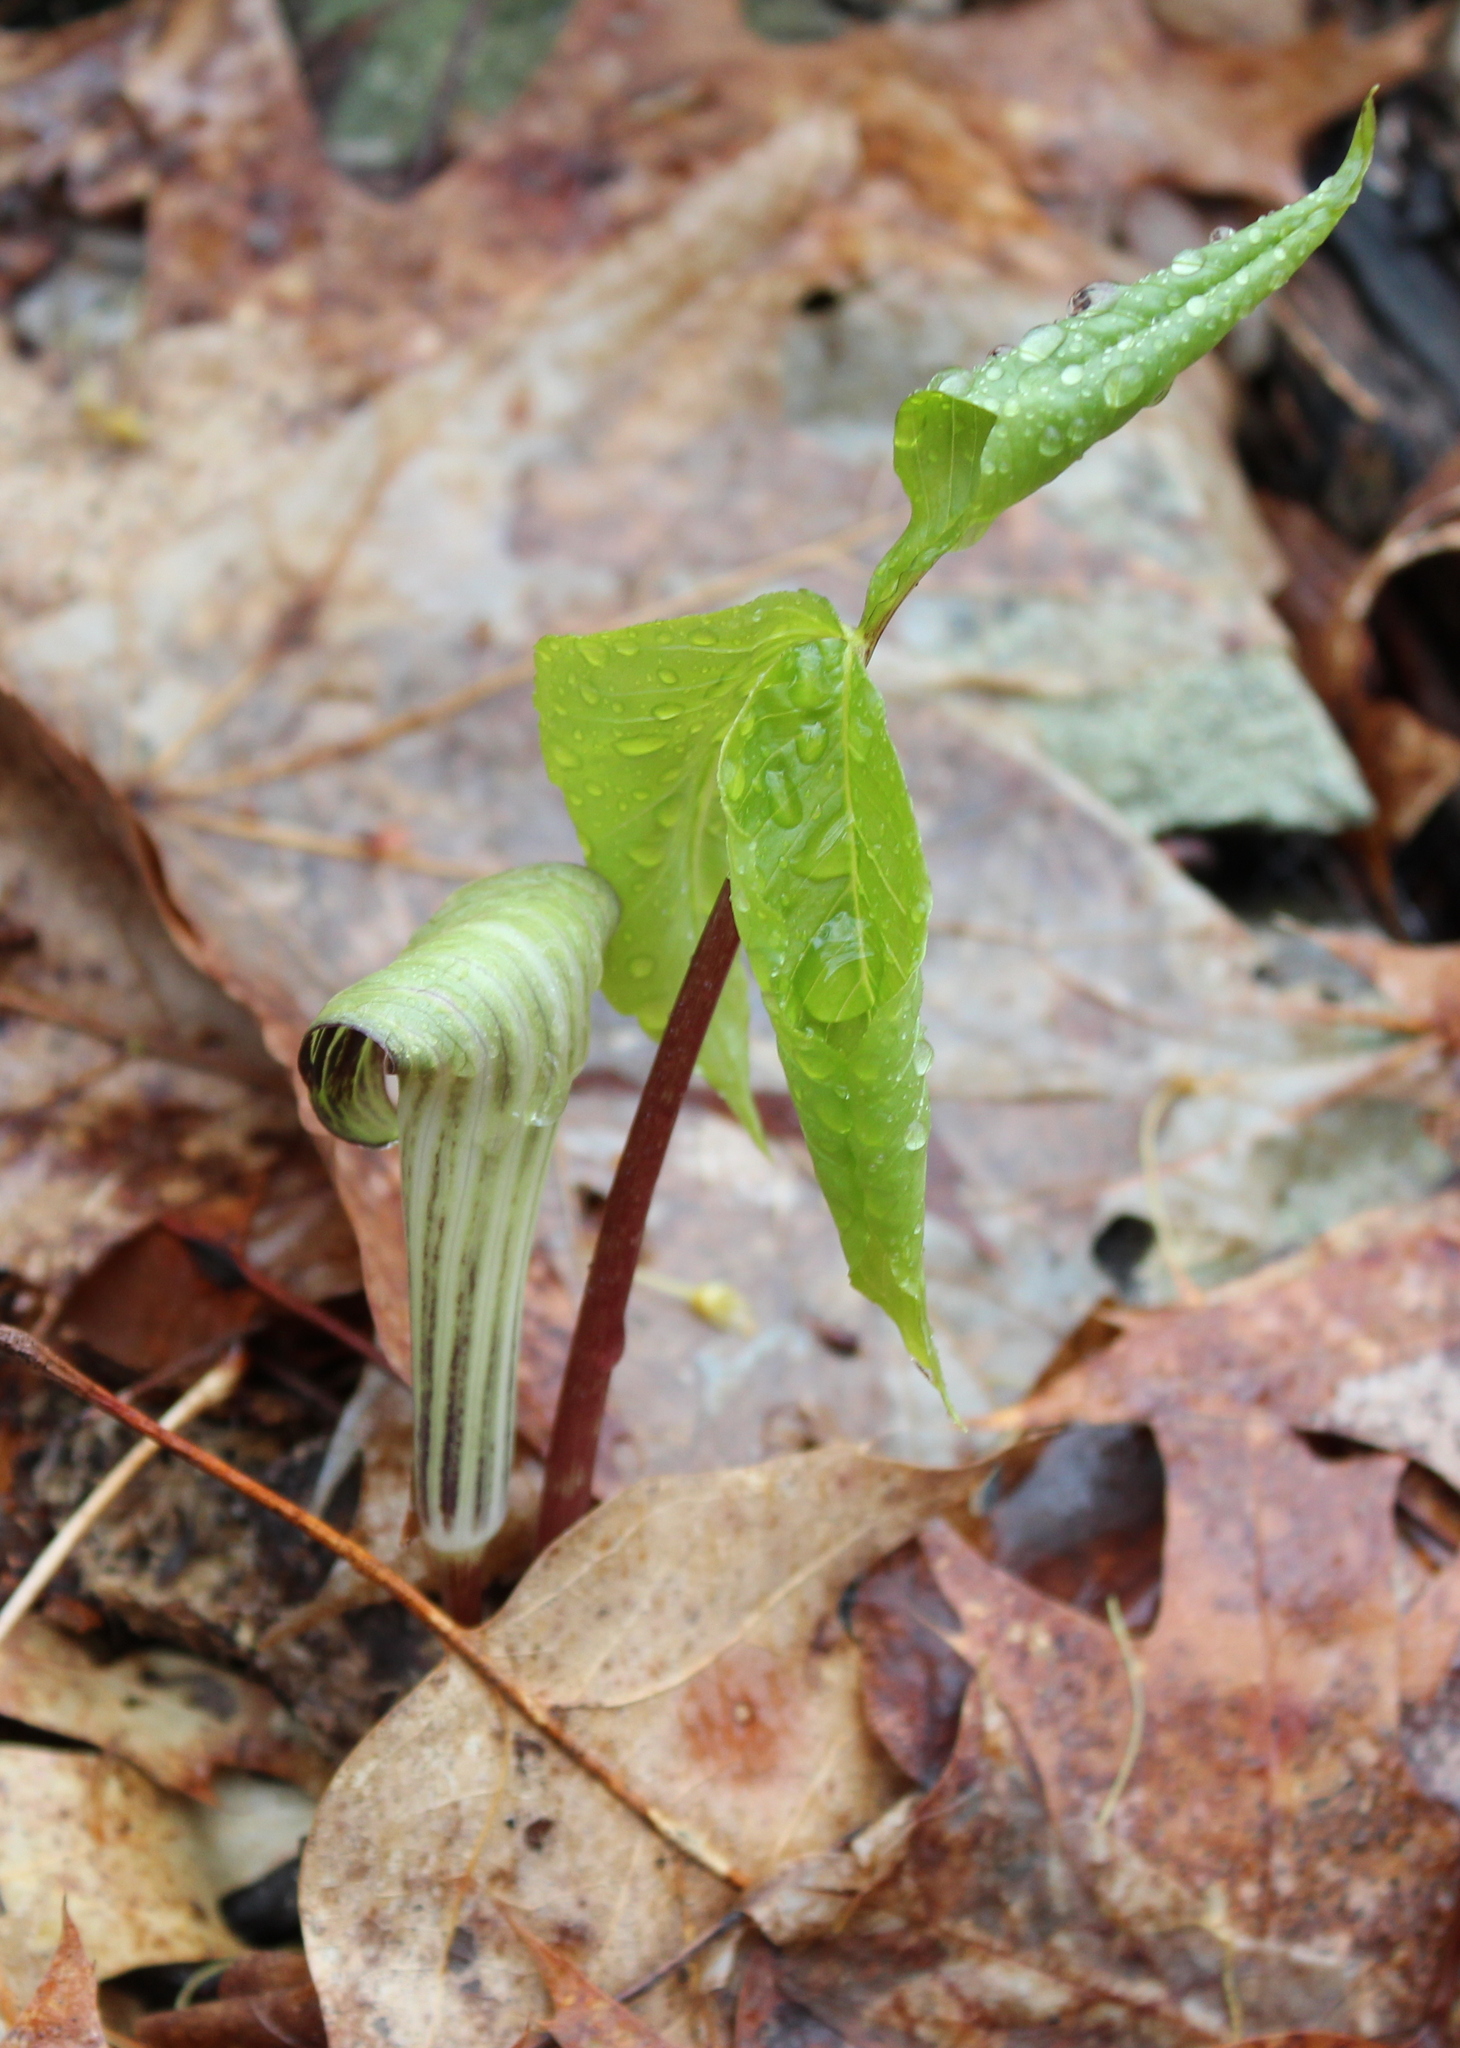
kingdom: Plantae
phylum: Tracheophyta
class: Liliopsida
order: Alismatales
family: Araceae
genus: Arisaema
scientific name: Arisaema triphyllum
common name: Jack-in-the-pulpit
